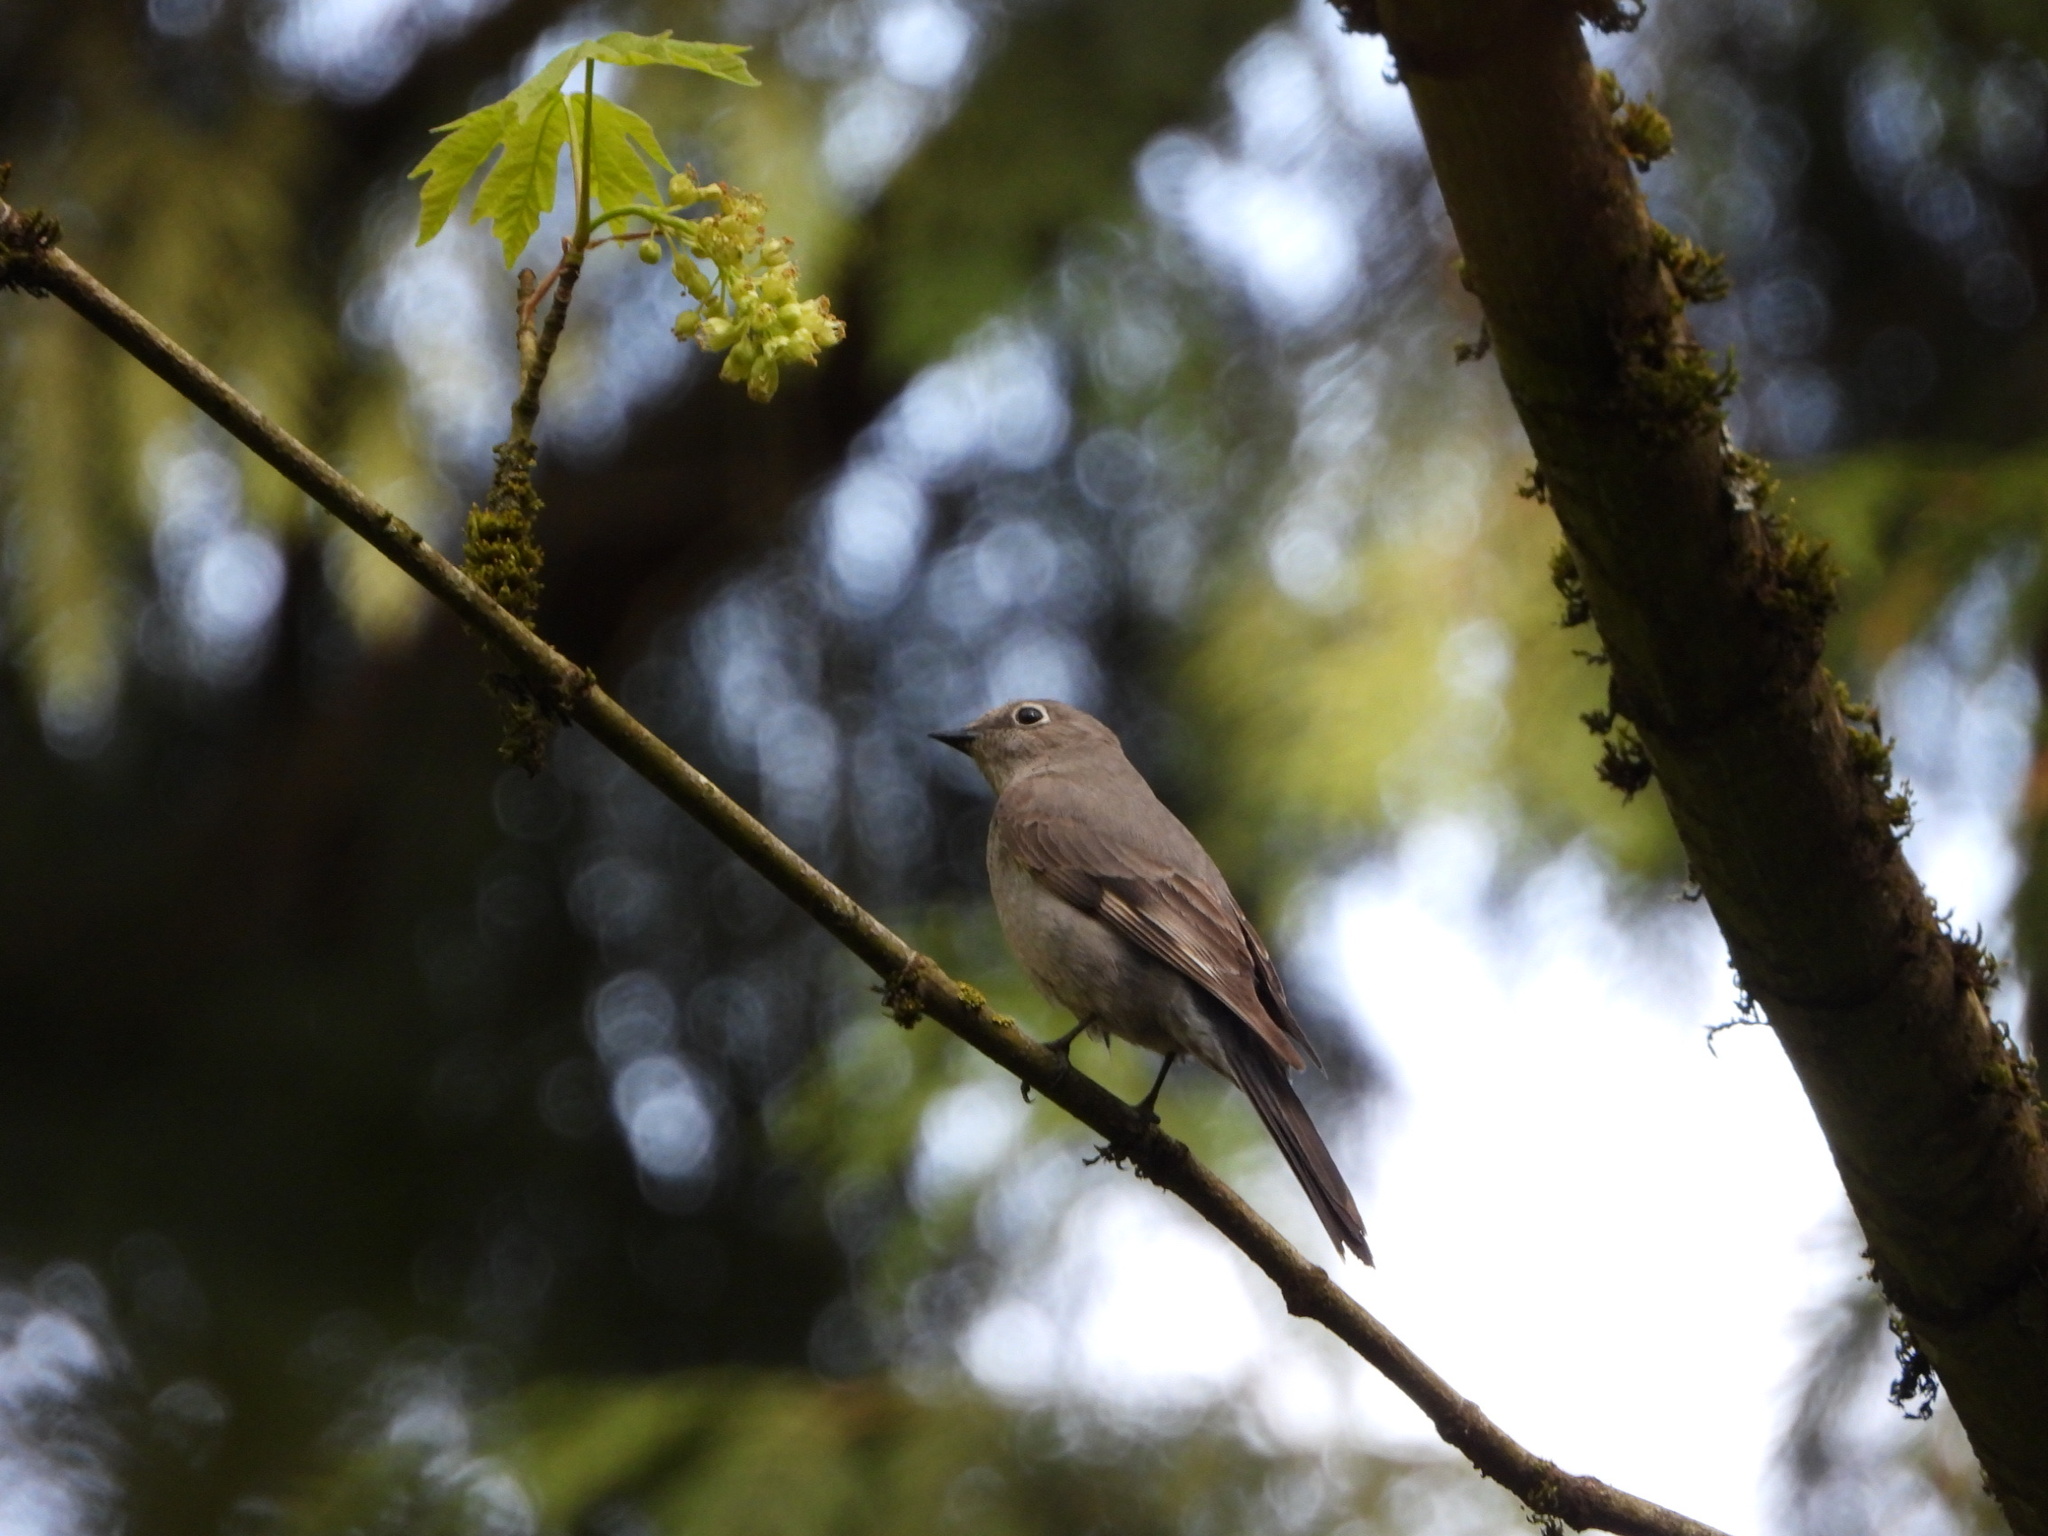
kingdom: Animalia
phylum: Chordata
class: Aves
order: Passeriformes
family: Turdidae
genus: Myadestes
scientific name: Myadestes townsendi
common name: Townsend's solitaire
